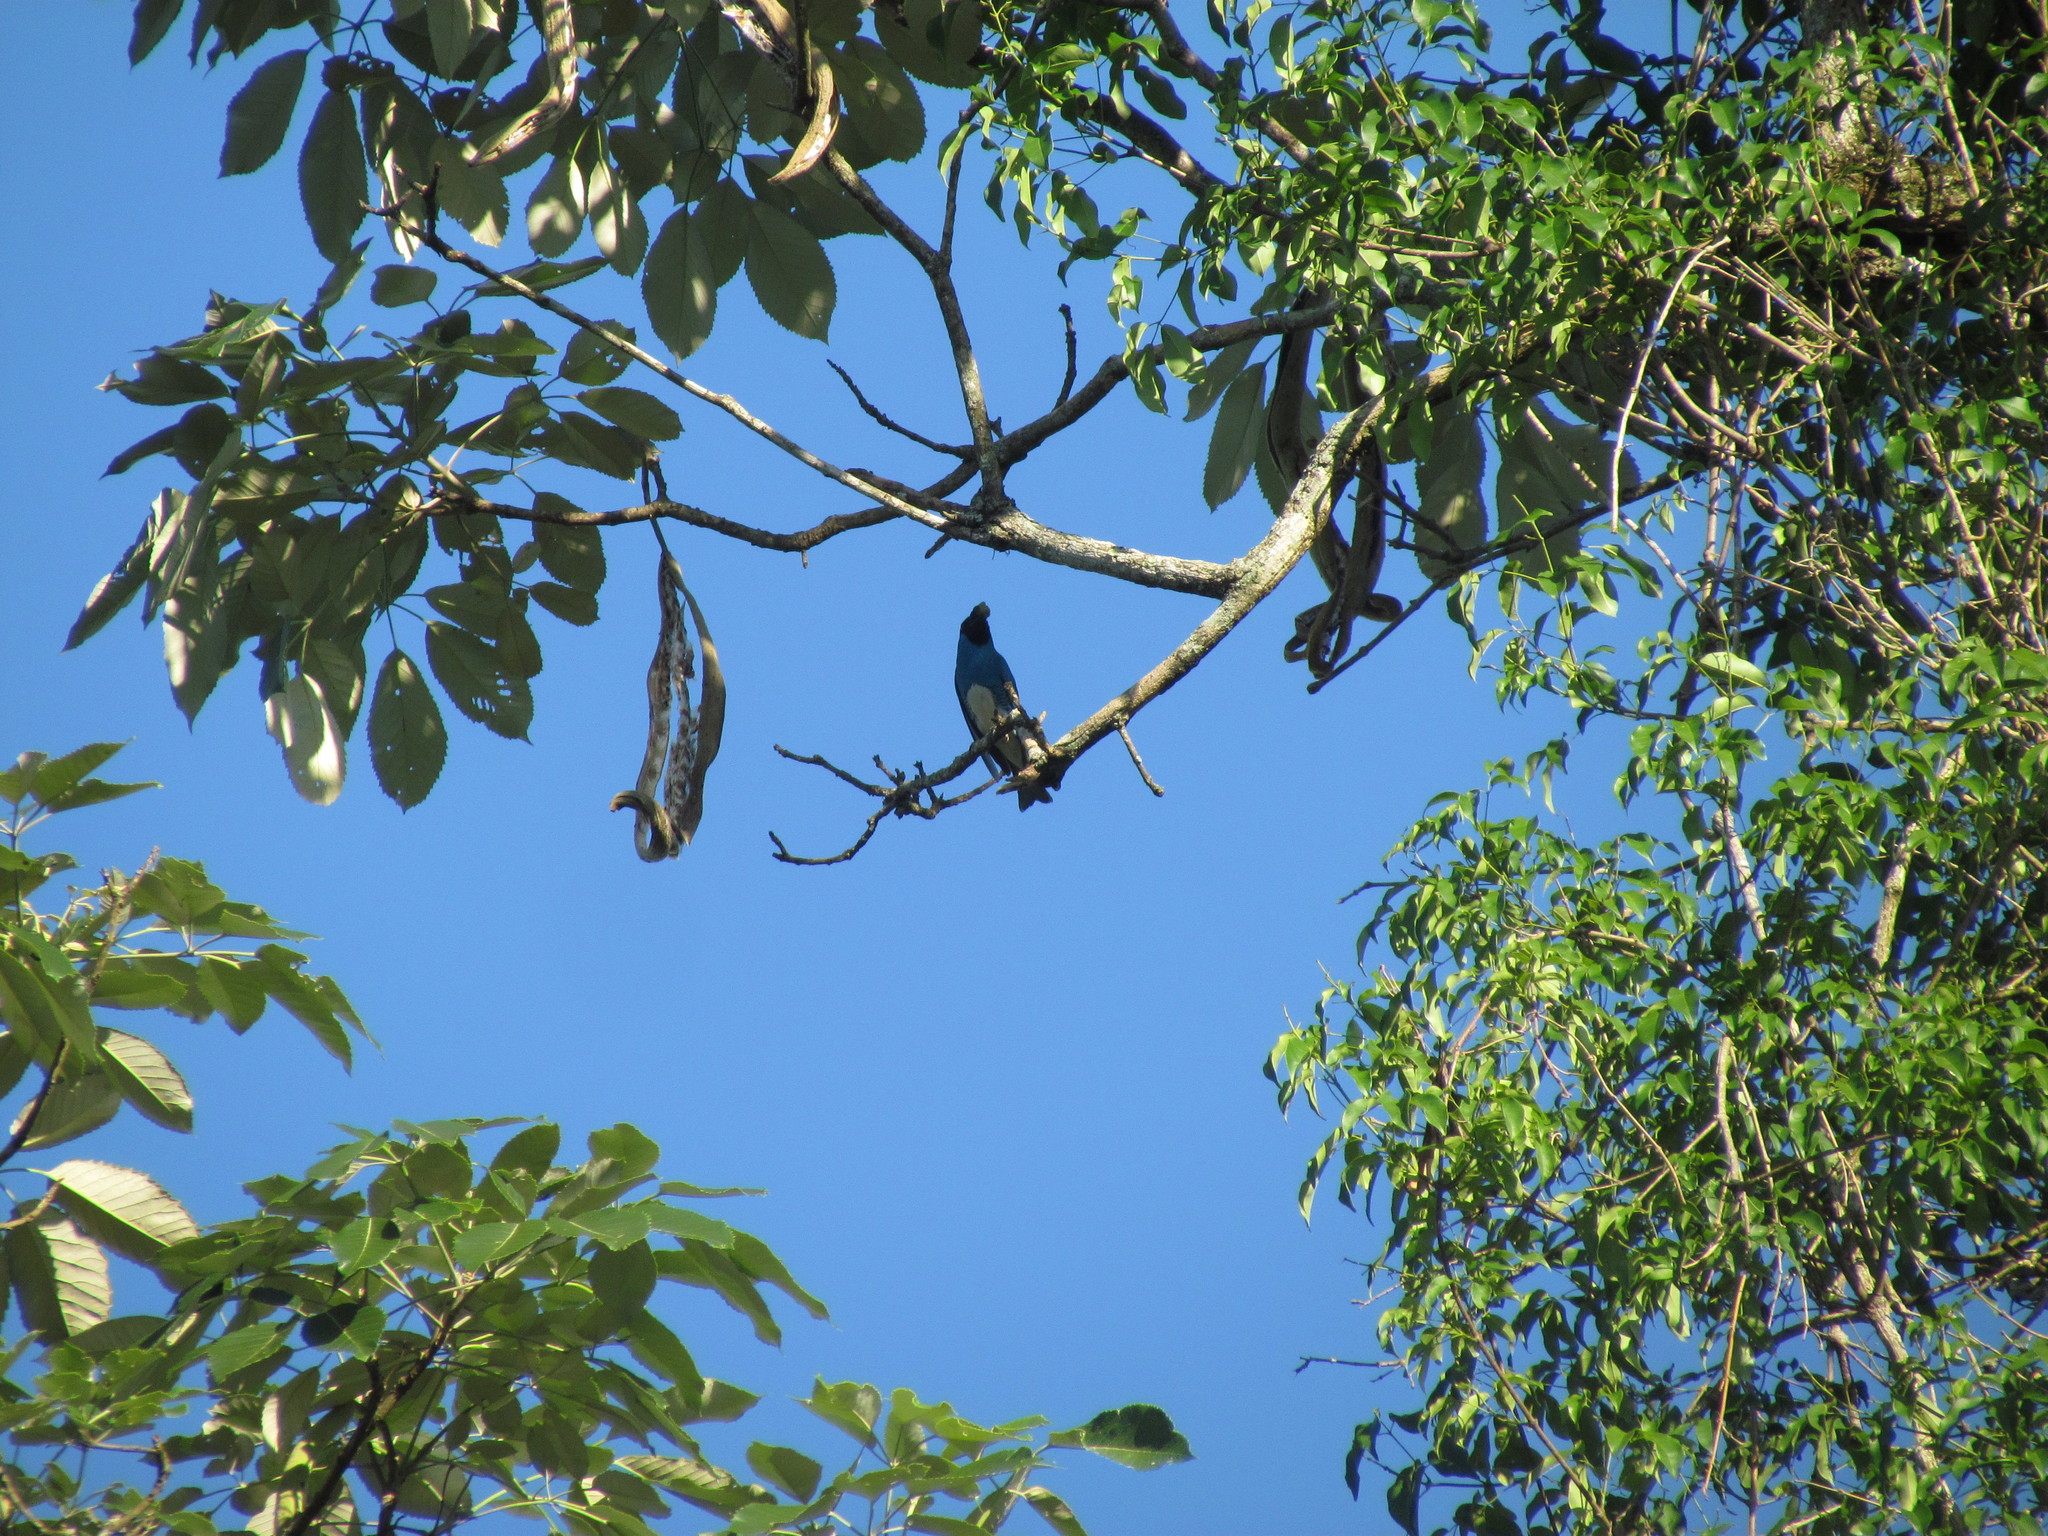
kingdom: Animalia
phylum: Chordata
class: Aves
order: Passeriformes
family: Thraupidae
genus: Tersina
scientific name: Tersina viridis
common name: Swallow tanager
